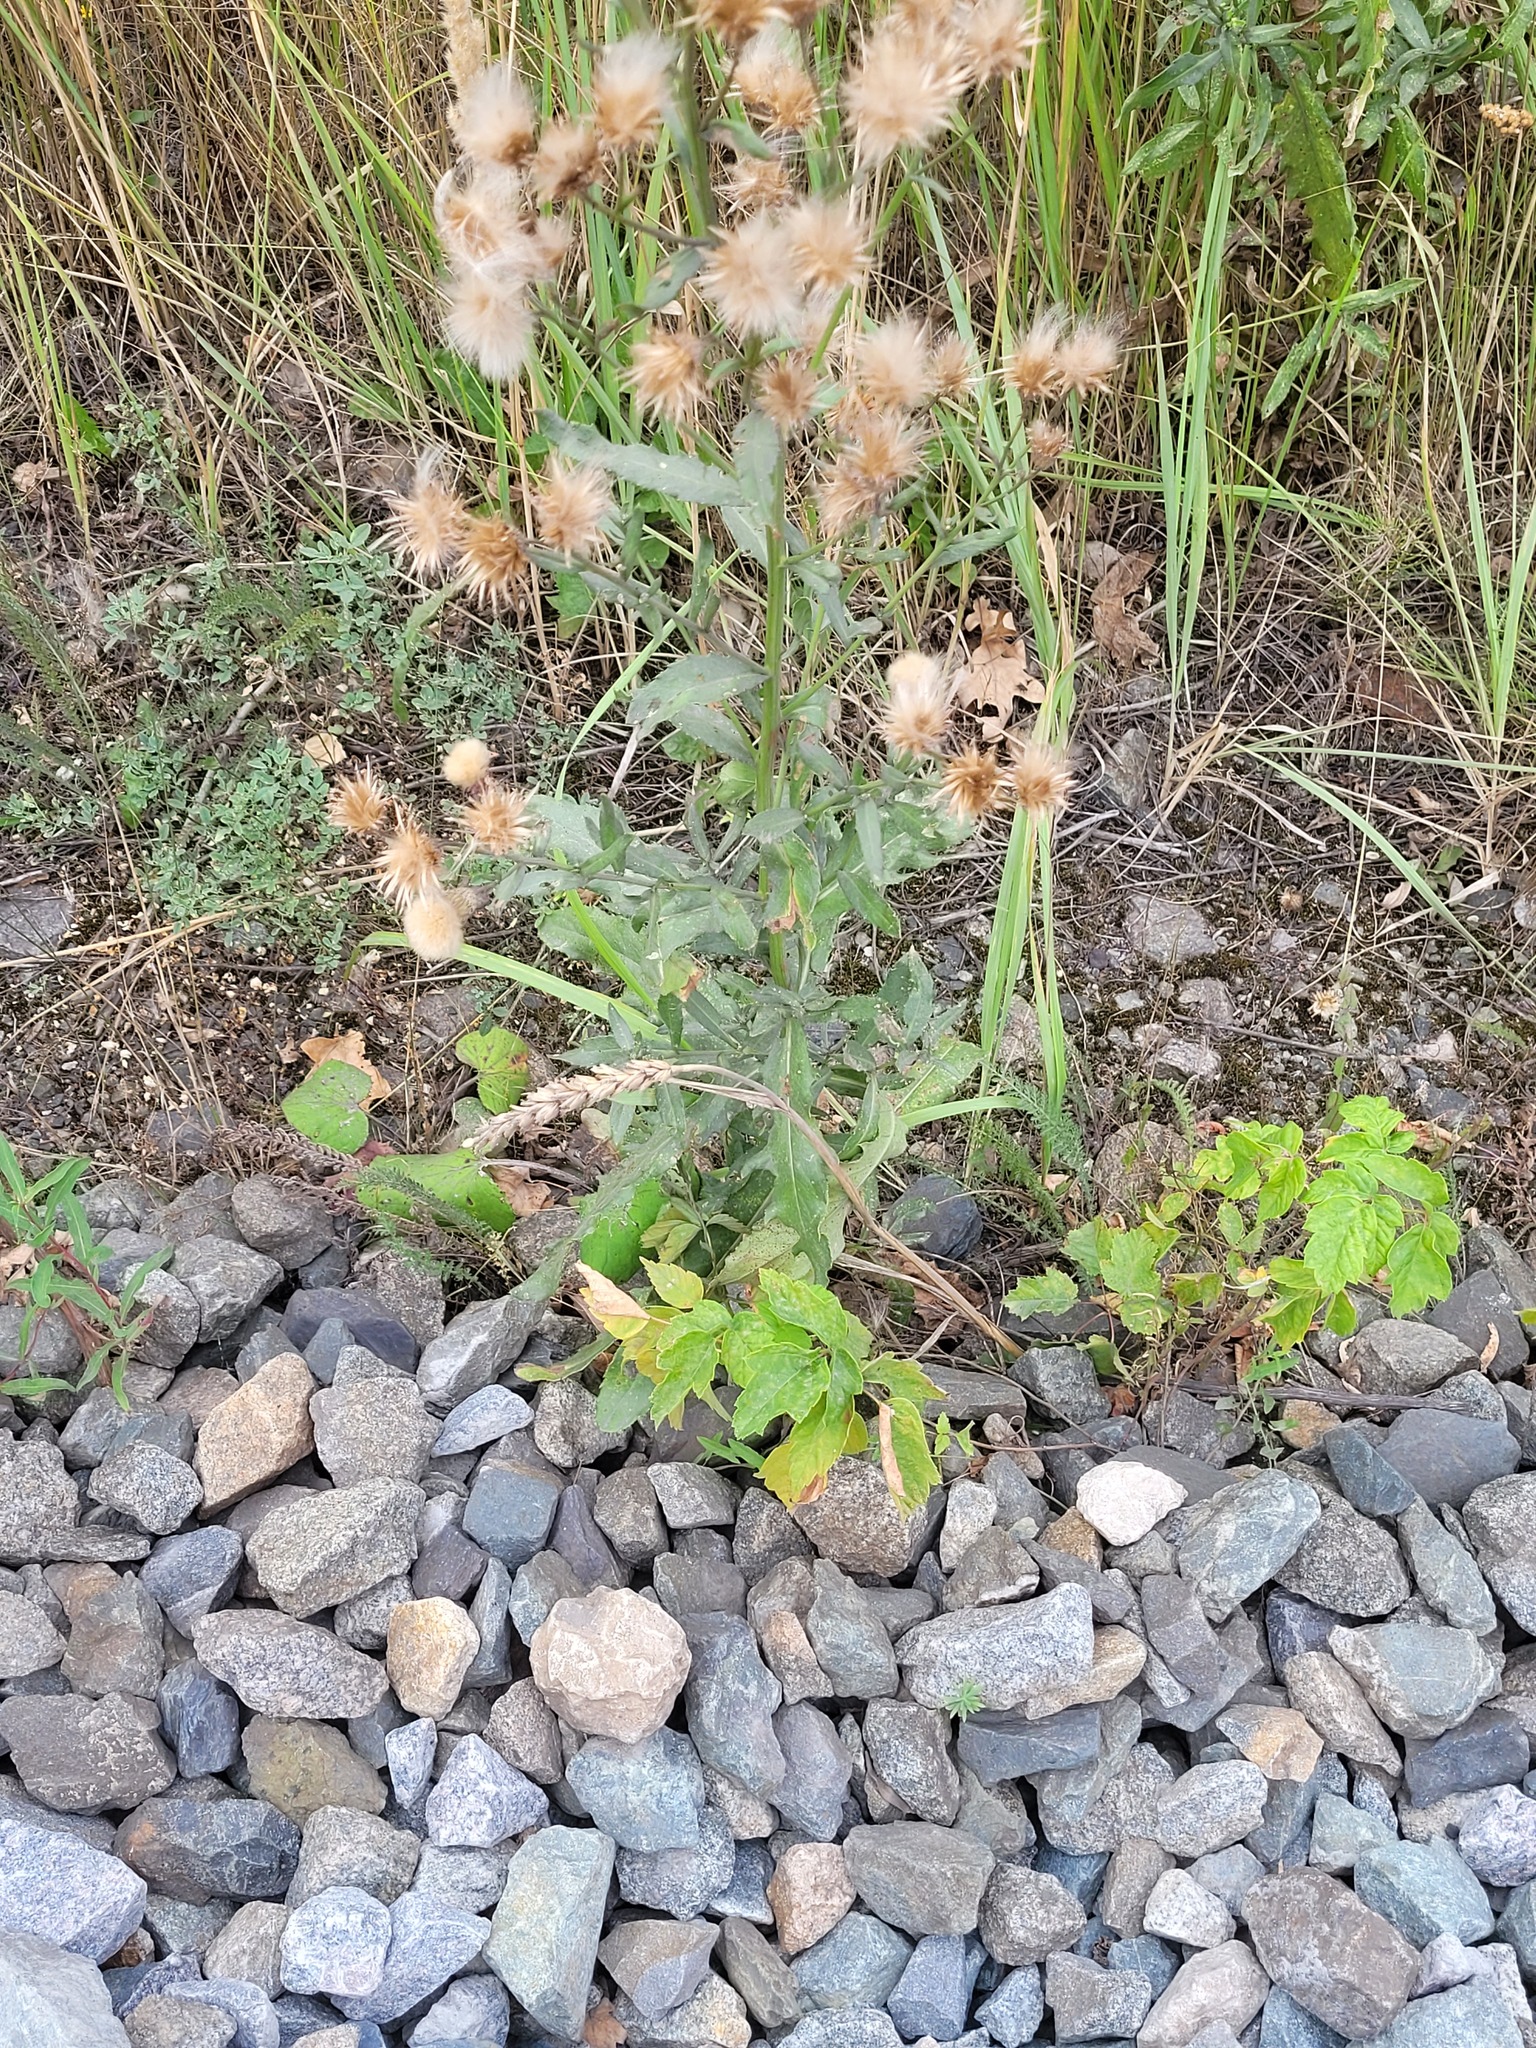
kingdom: Plantae
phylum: Tracheophyta
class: Liliopsida
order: Poales
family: Poaceae
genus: Triticum
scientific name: Triticum aestivum
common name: Common wheat
